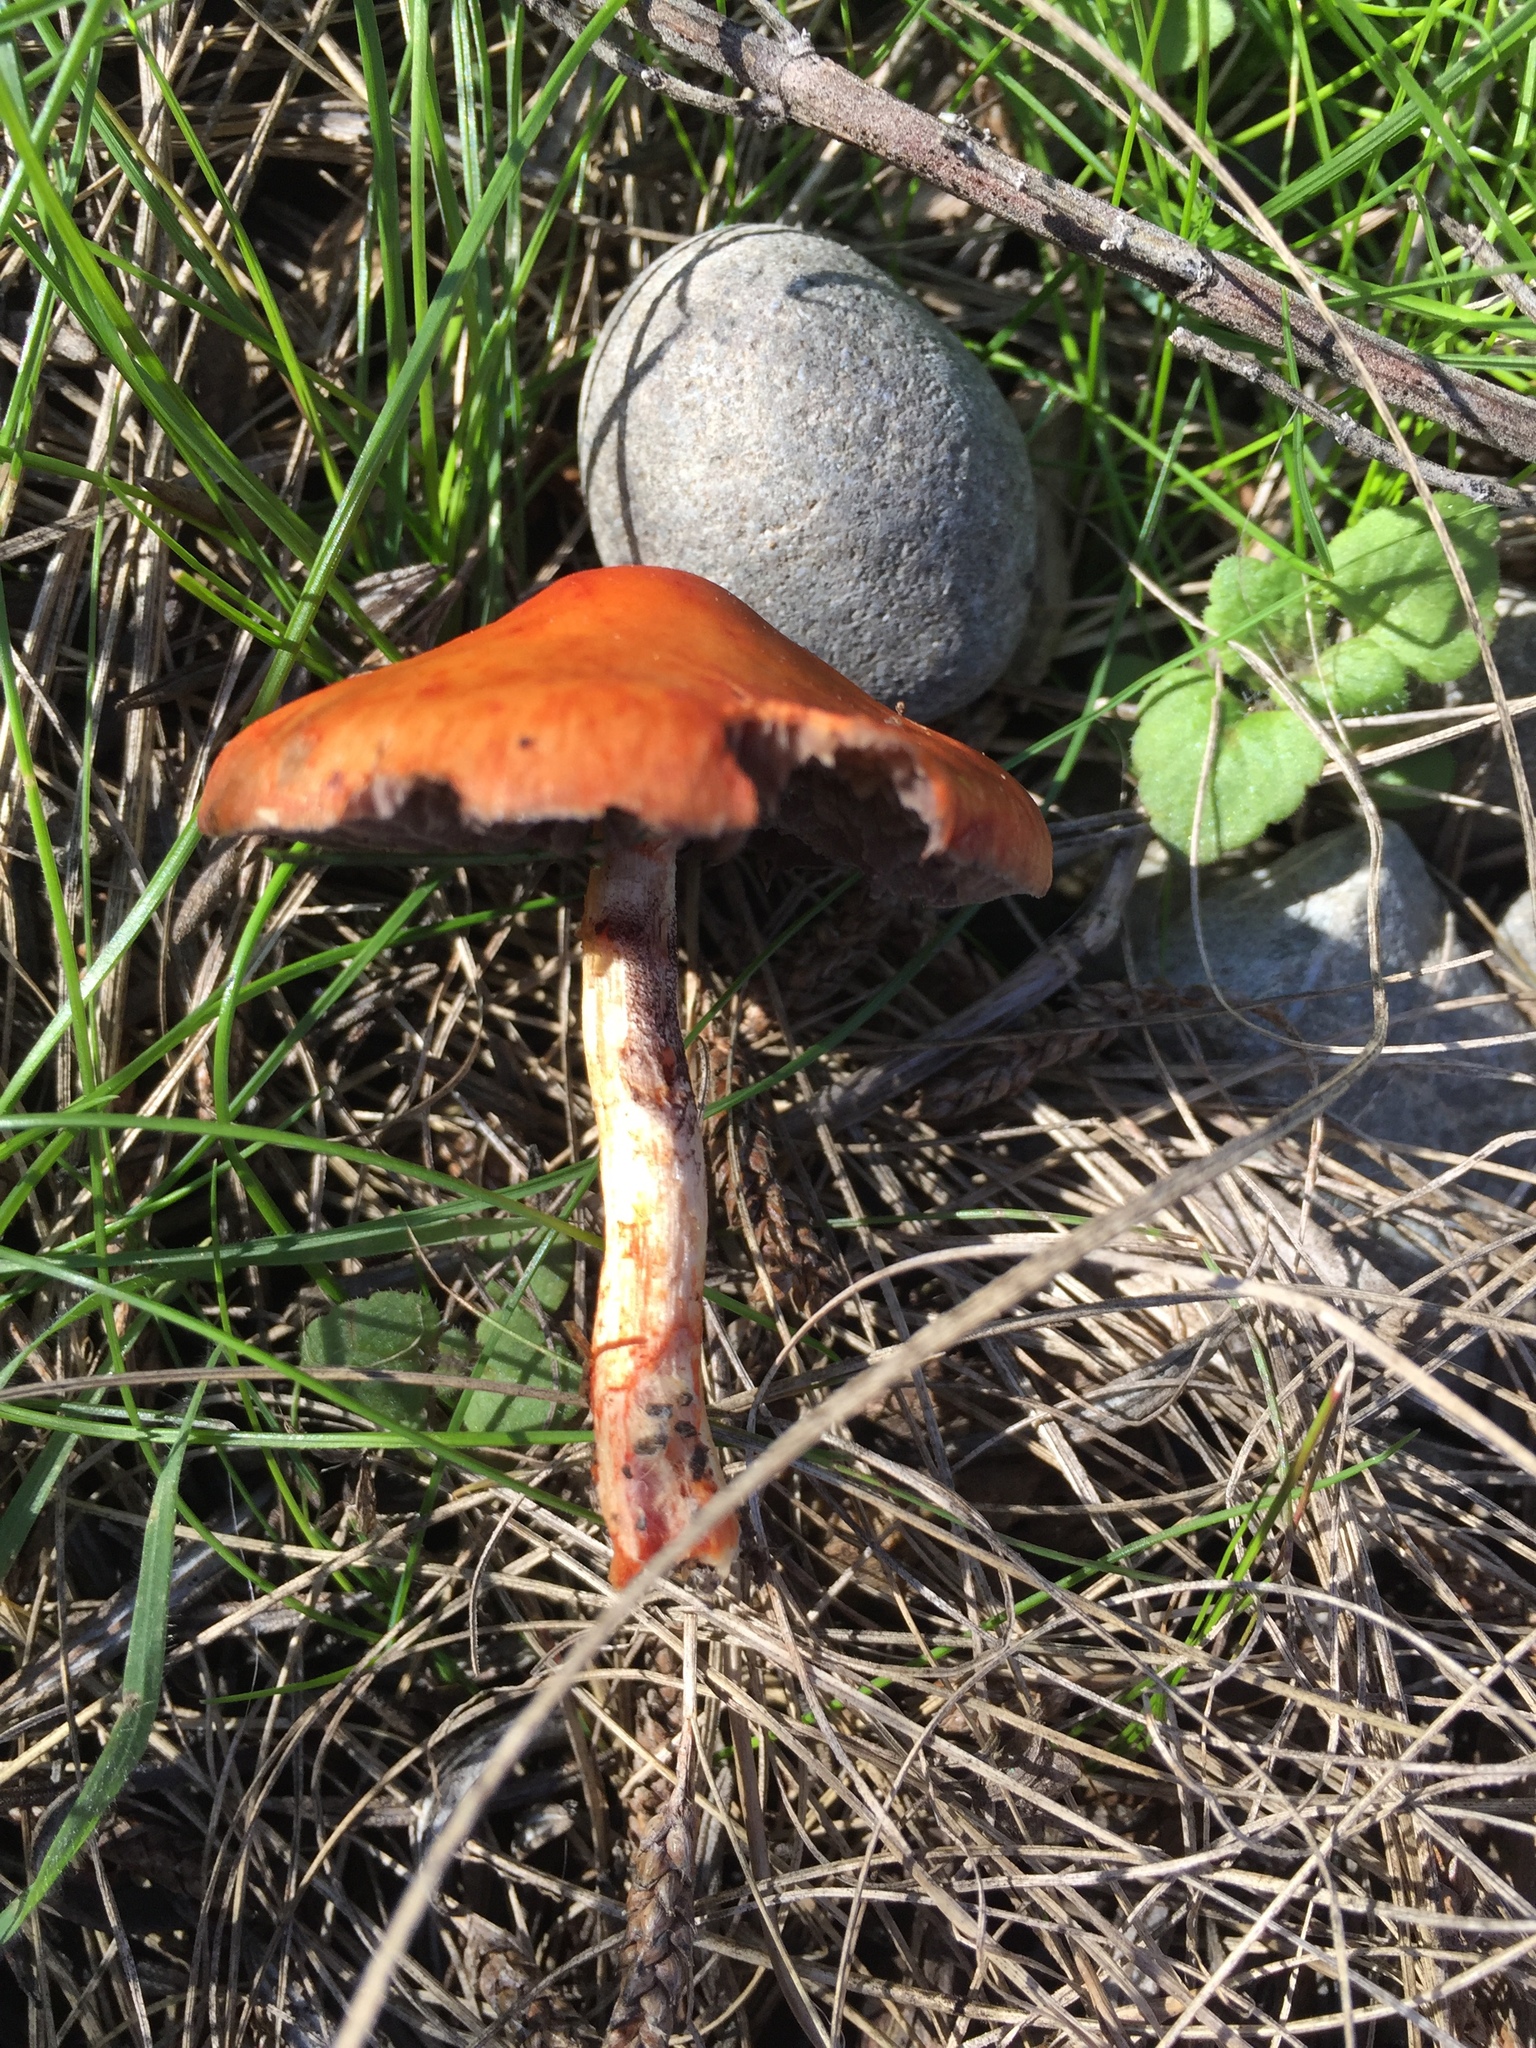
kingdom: Fungi
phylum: Basidiomycota
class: Agaricomycetes
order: Agaricales
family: Strophariaceae
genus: Leratiomyces
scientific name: Leratiomyces ceres
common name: Redlead roundhead
